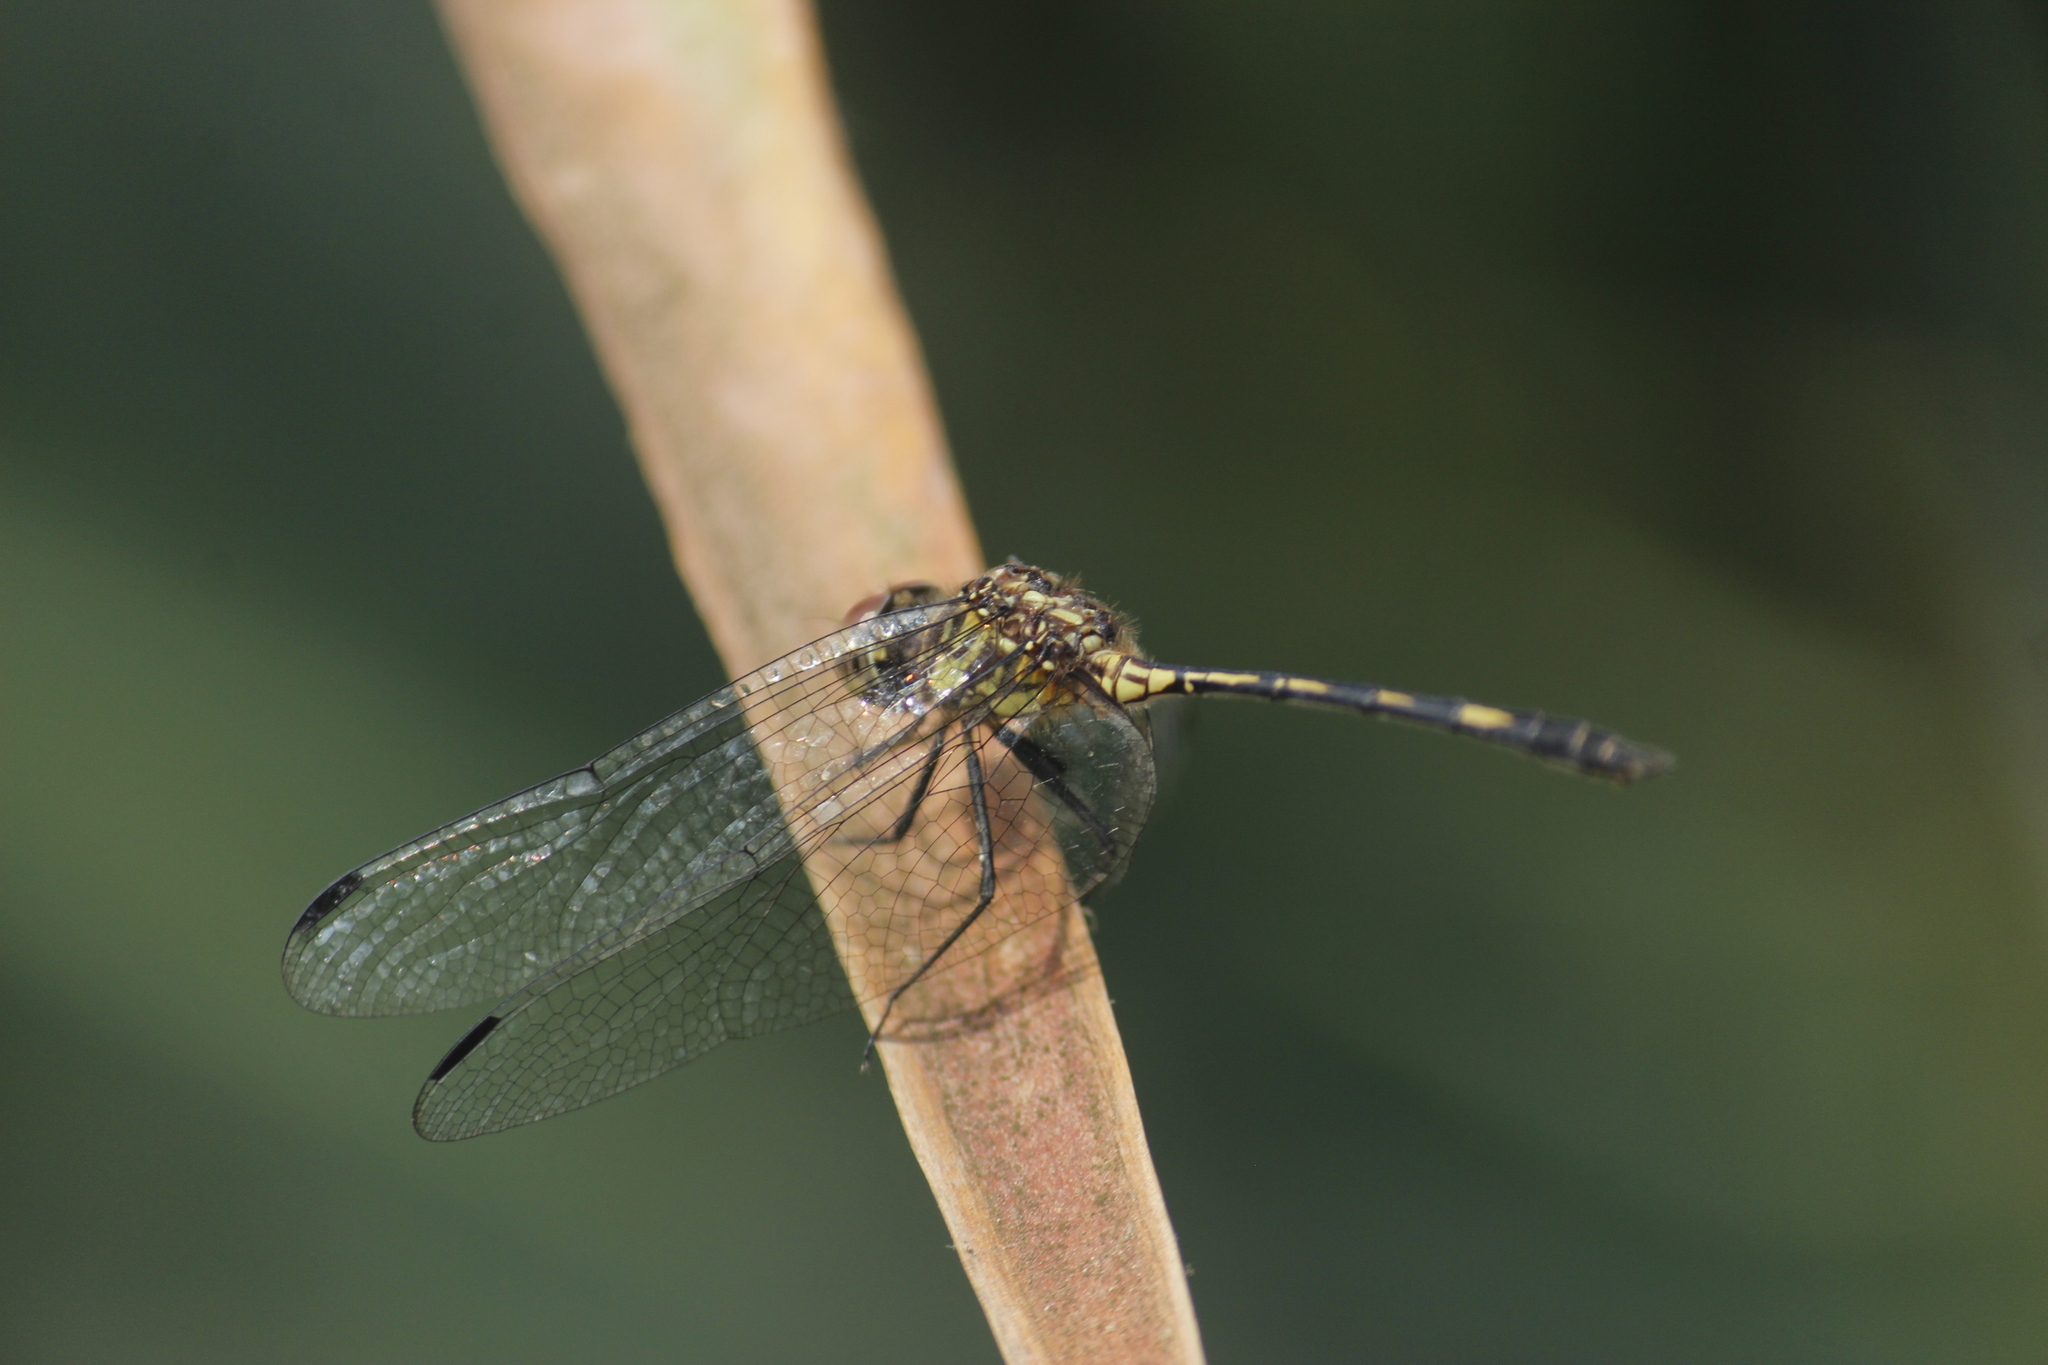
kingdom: Animalia
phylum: Arthropoda
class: Insecta
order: Odonata
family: Libellulidae
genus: Dythemis
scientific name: Dythemis sterilis
